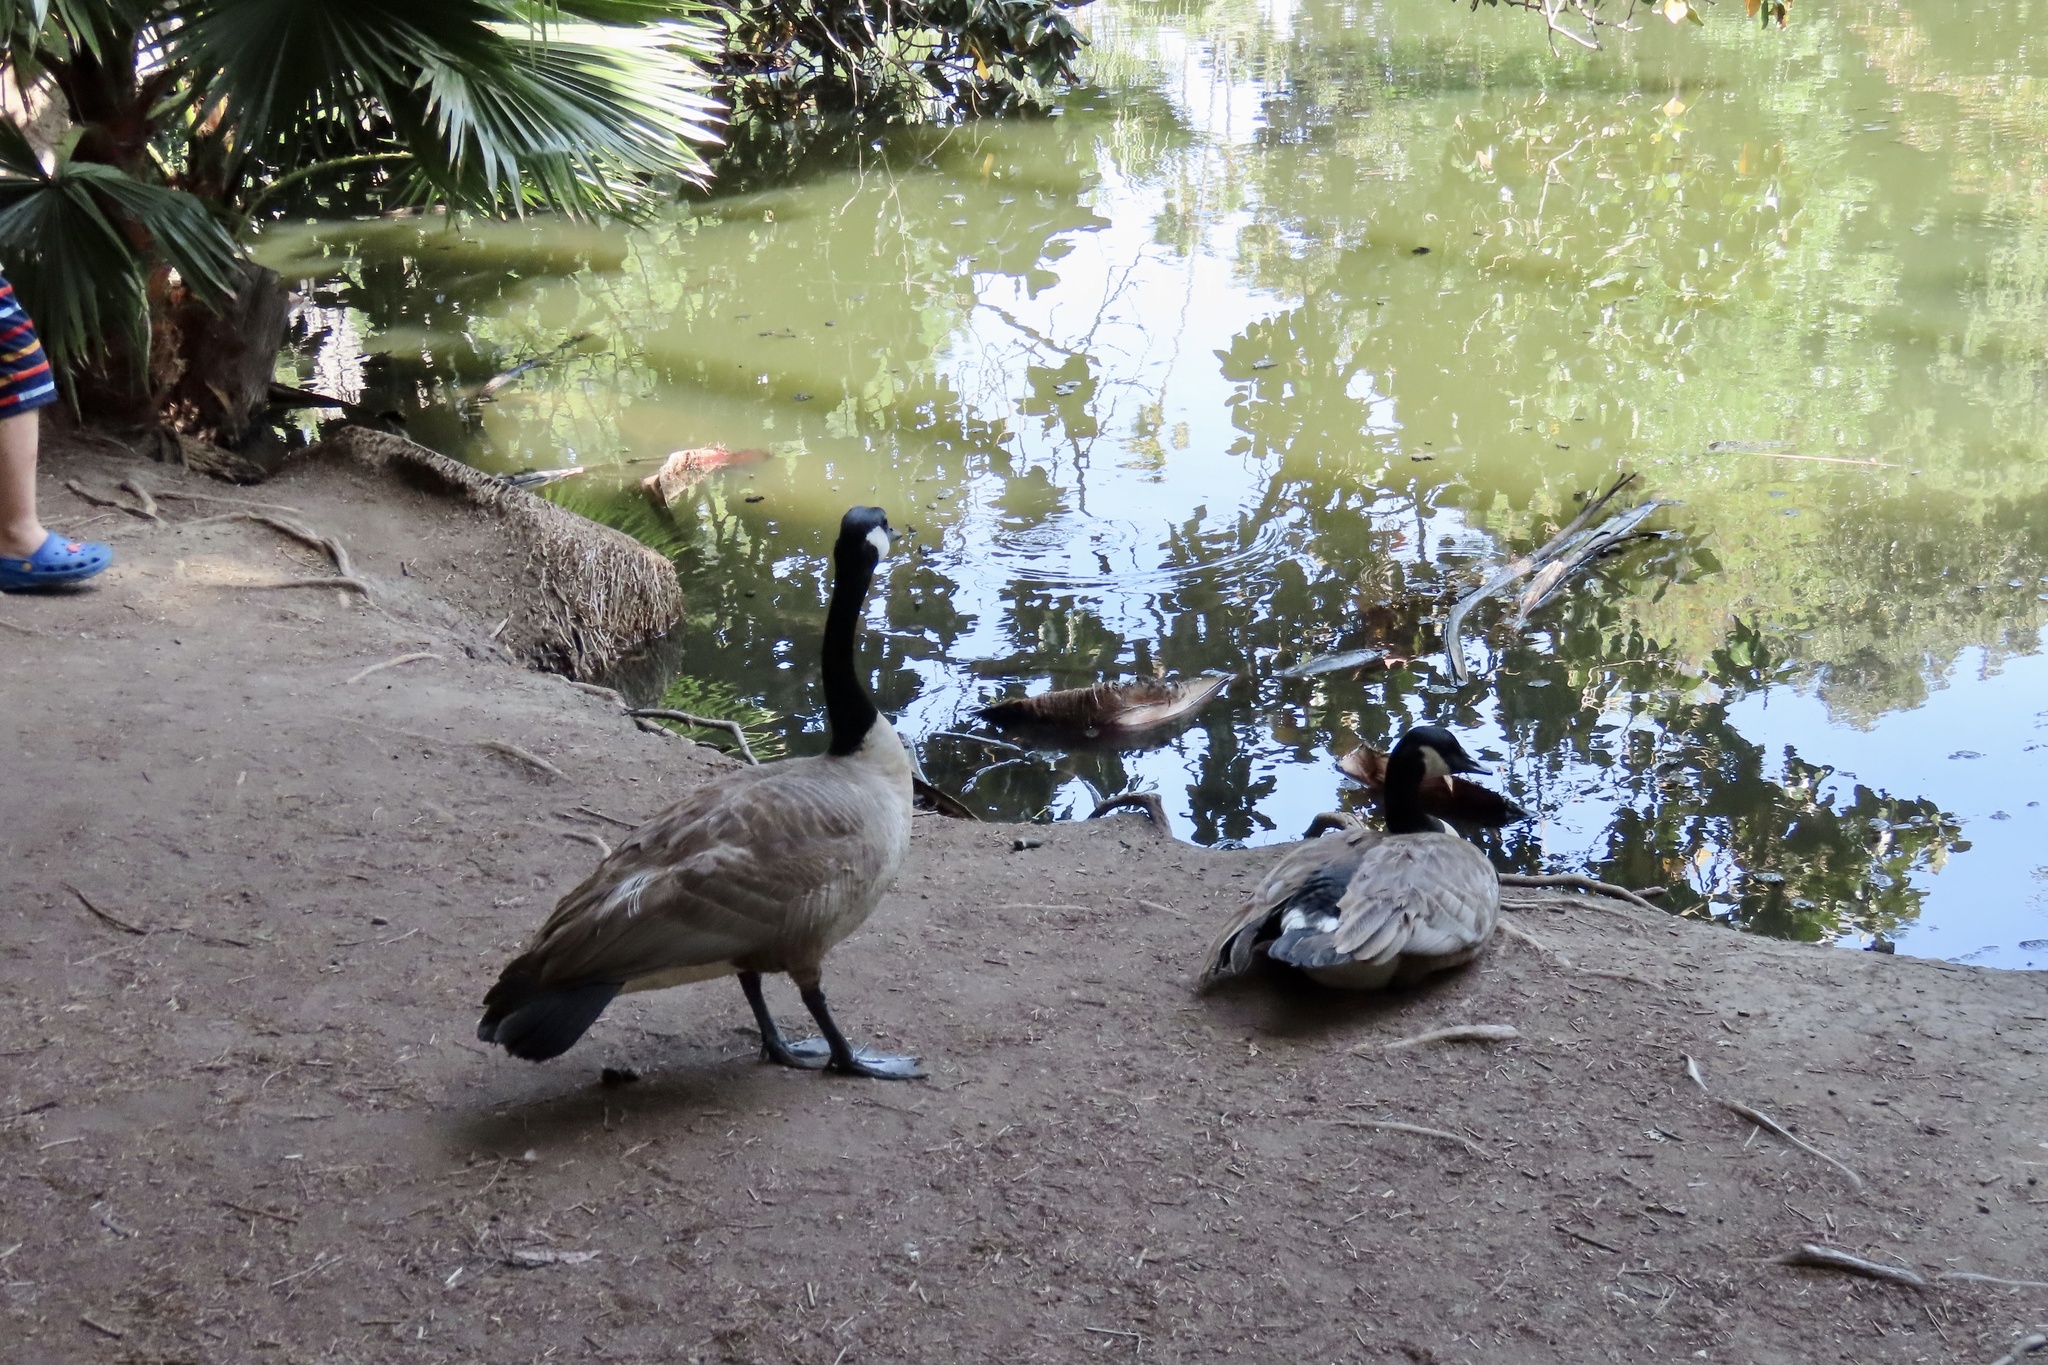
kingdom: Animalia
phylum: Chordata
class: Aves
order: Anseriformes
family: Anatidae
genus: Branta
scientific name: Branta canadensis
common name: Canada goose
